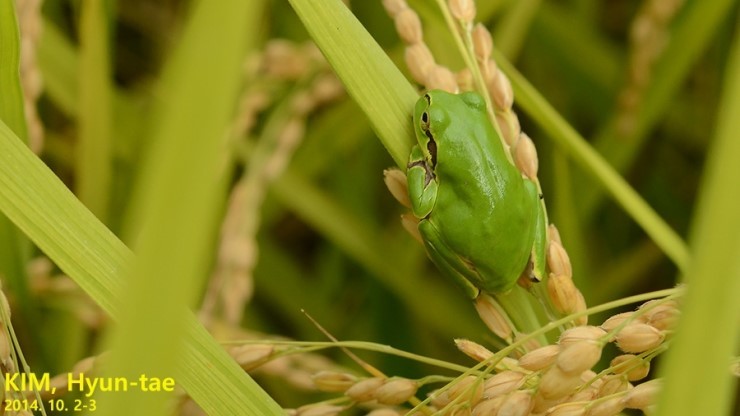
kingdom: Animalia
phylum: Chordata
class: Amphibia
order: Anura
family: Hylidae
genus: Dryophytes
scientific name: Dryophytes immaculatus
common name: North china treefrog
